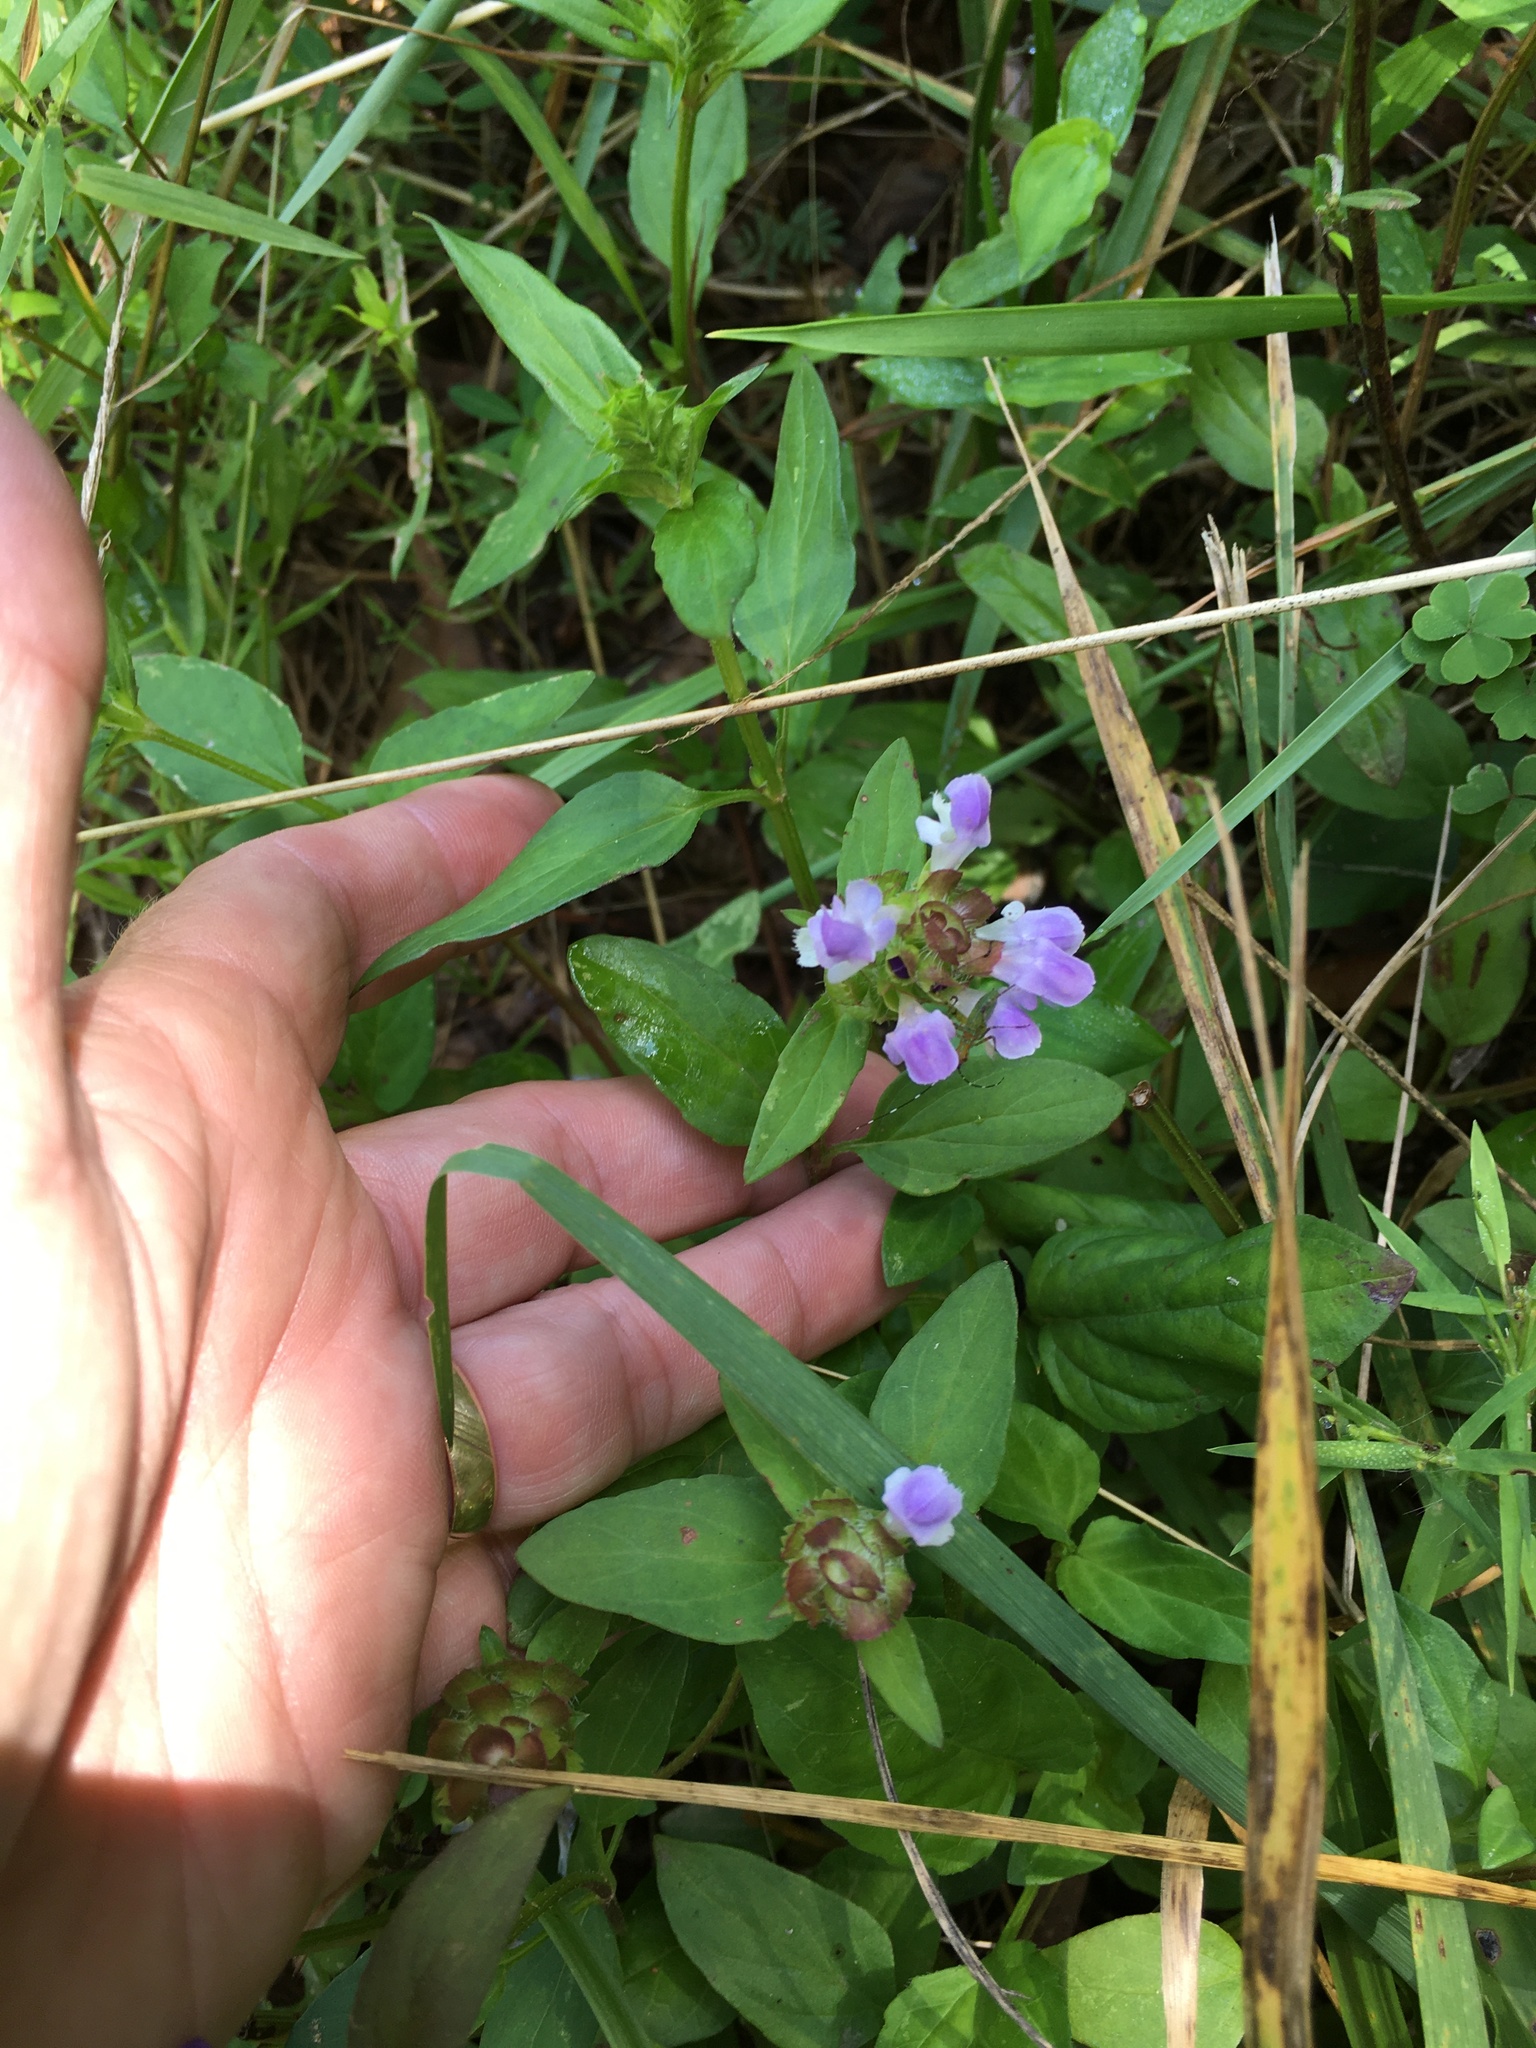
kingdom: Plantae
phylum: Tracheophyta
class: Magnoliopsida
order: Lamiales
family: Lamiaceae
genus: Prunella
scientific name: Prunella vulgaris
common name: Heal-all
